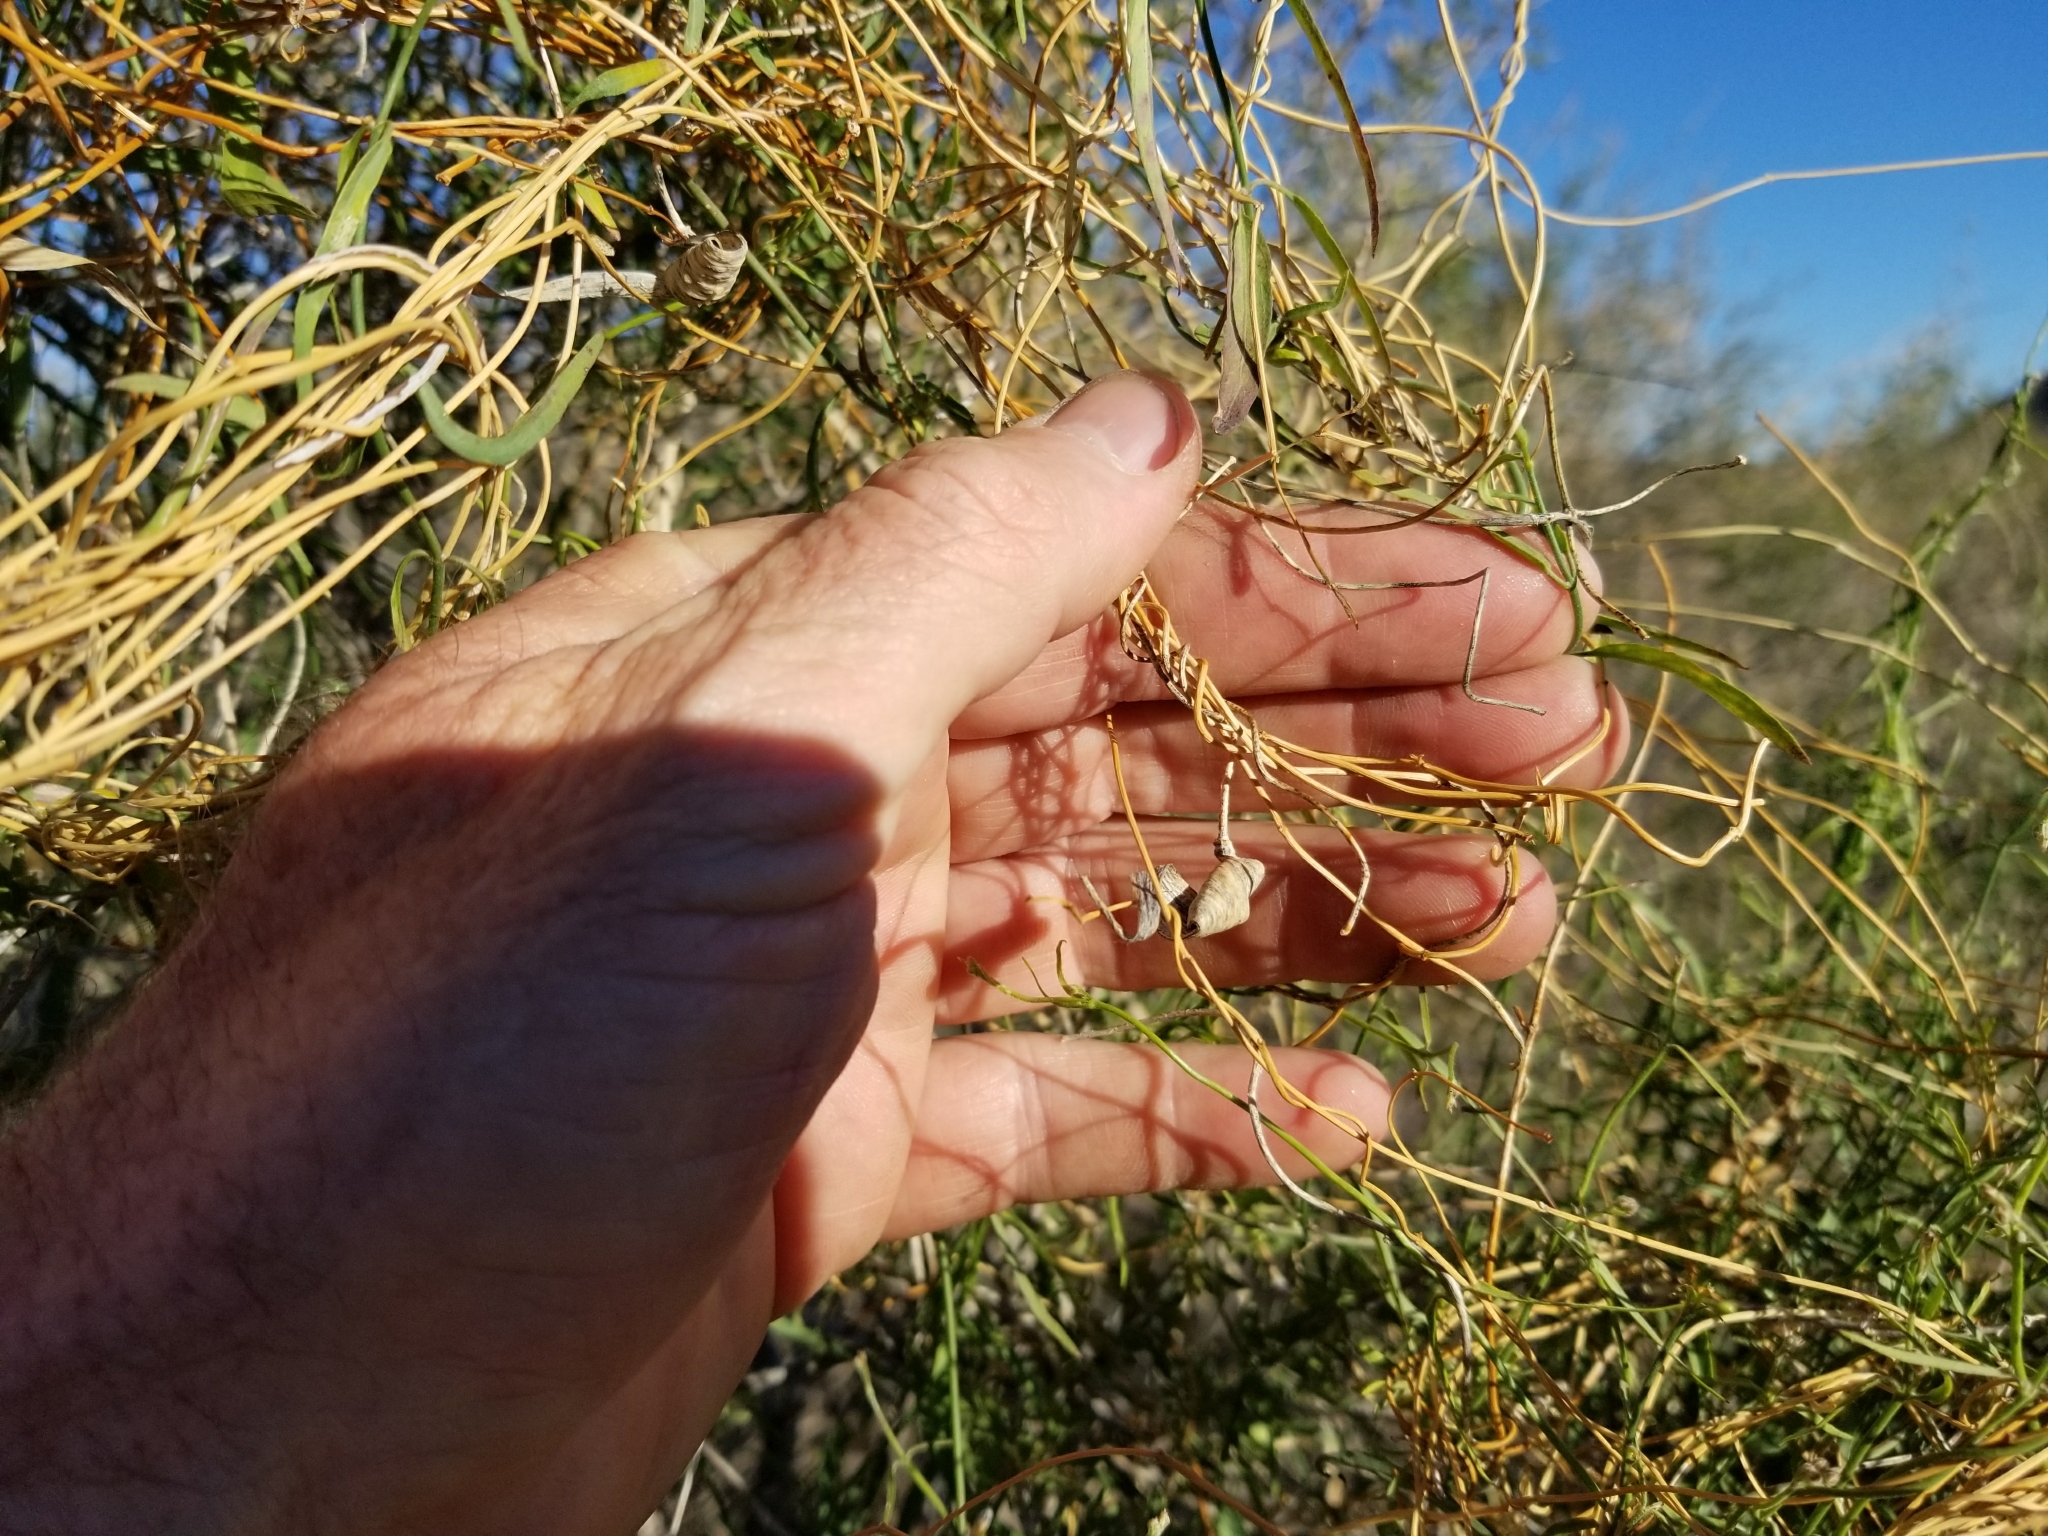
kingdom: Plantae
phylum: Tracheophyta
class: Magnoliopsida
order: Gentianales
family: Apocynaceae
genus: Funastrum
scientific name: Funastrum heterophyllum
